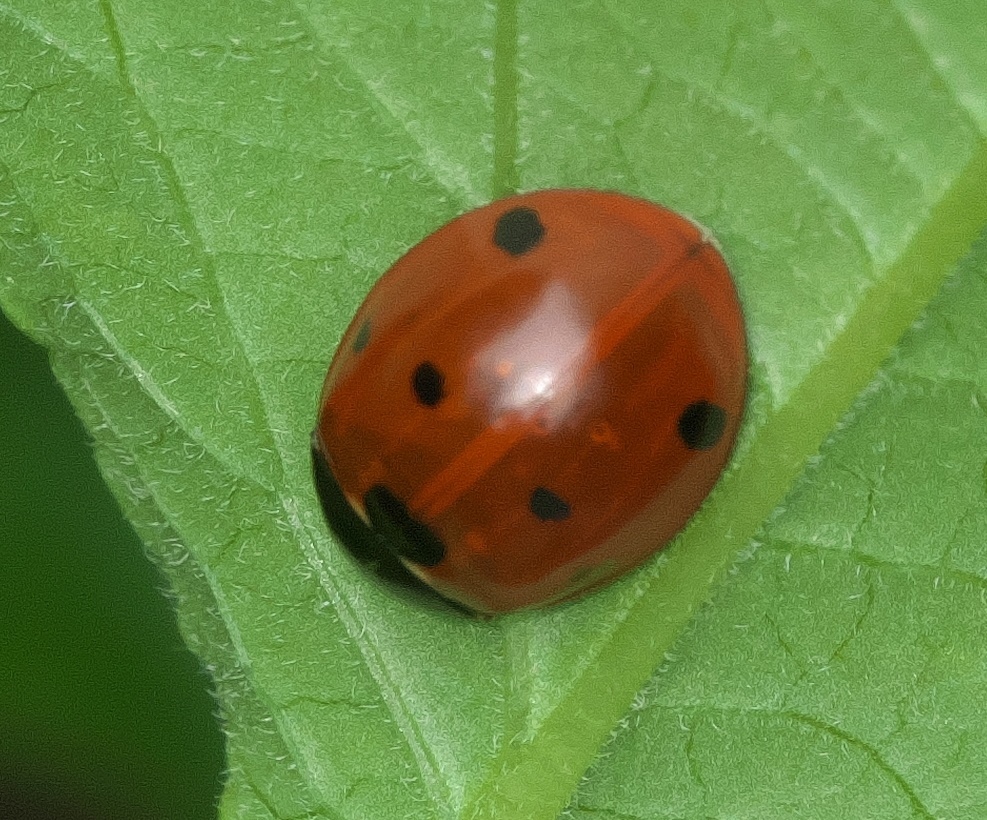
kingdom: Animalia
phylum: Arthropoda
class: Insecta
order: Coleoptera
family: Coccinellidae
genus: Coccinella
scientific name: Coccinella septempunctata
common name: Sevenspotted lady beetle
